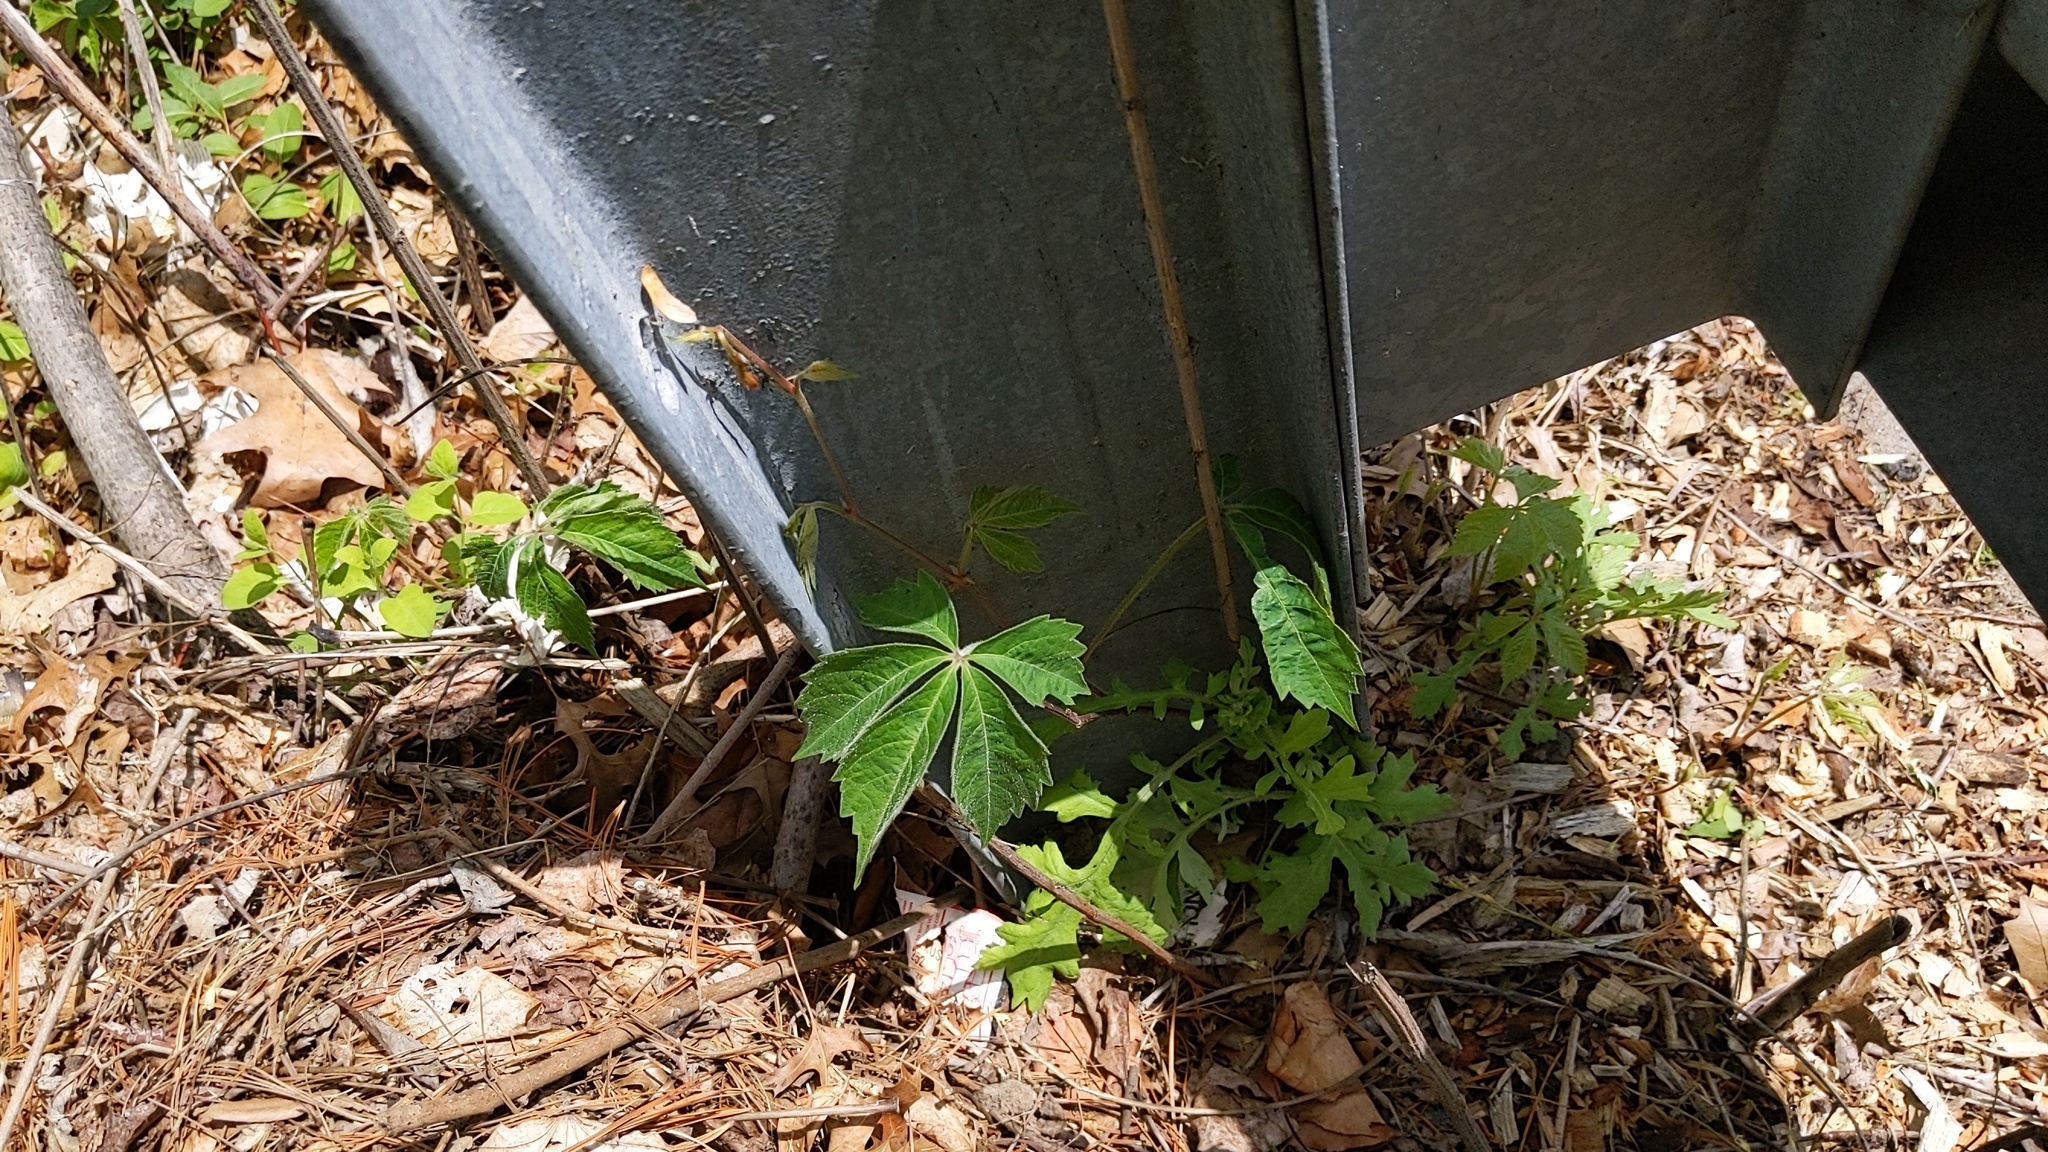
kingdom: Plantae
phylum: Tracheophyta
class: Magnoliopsida
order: Vitales
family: Vitaceae
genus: Parthenocissus
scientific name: Parthenocissus quinquefolia
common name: Virginia-creeper
